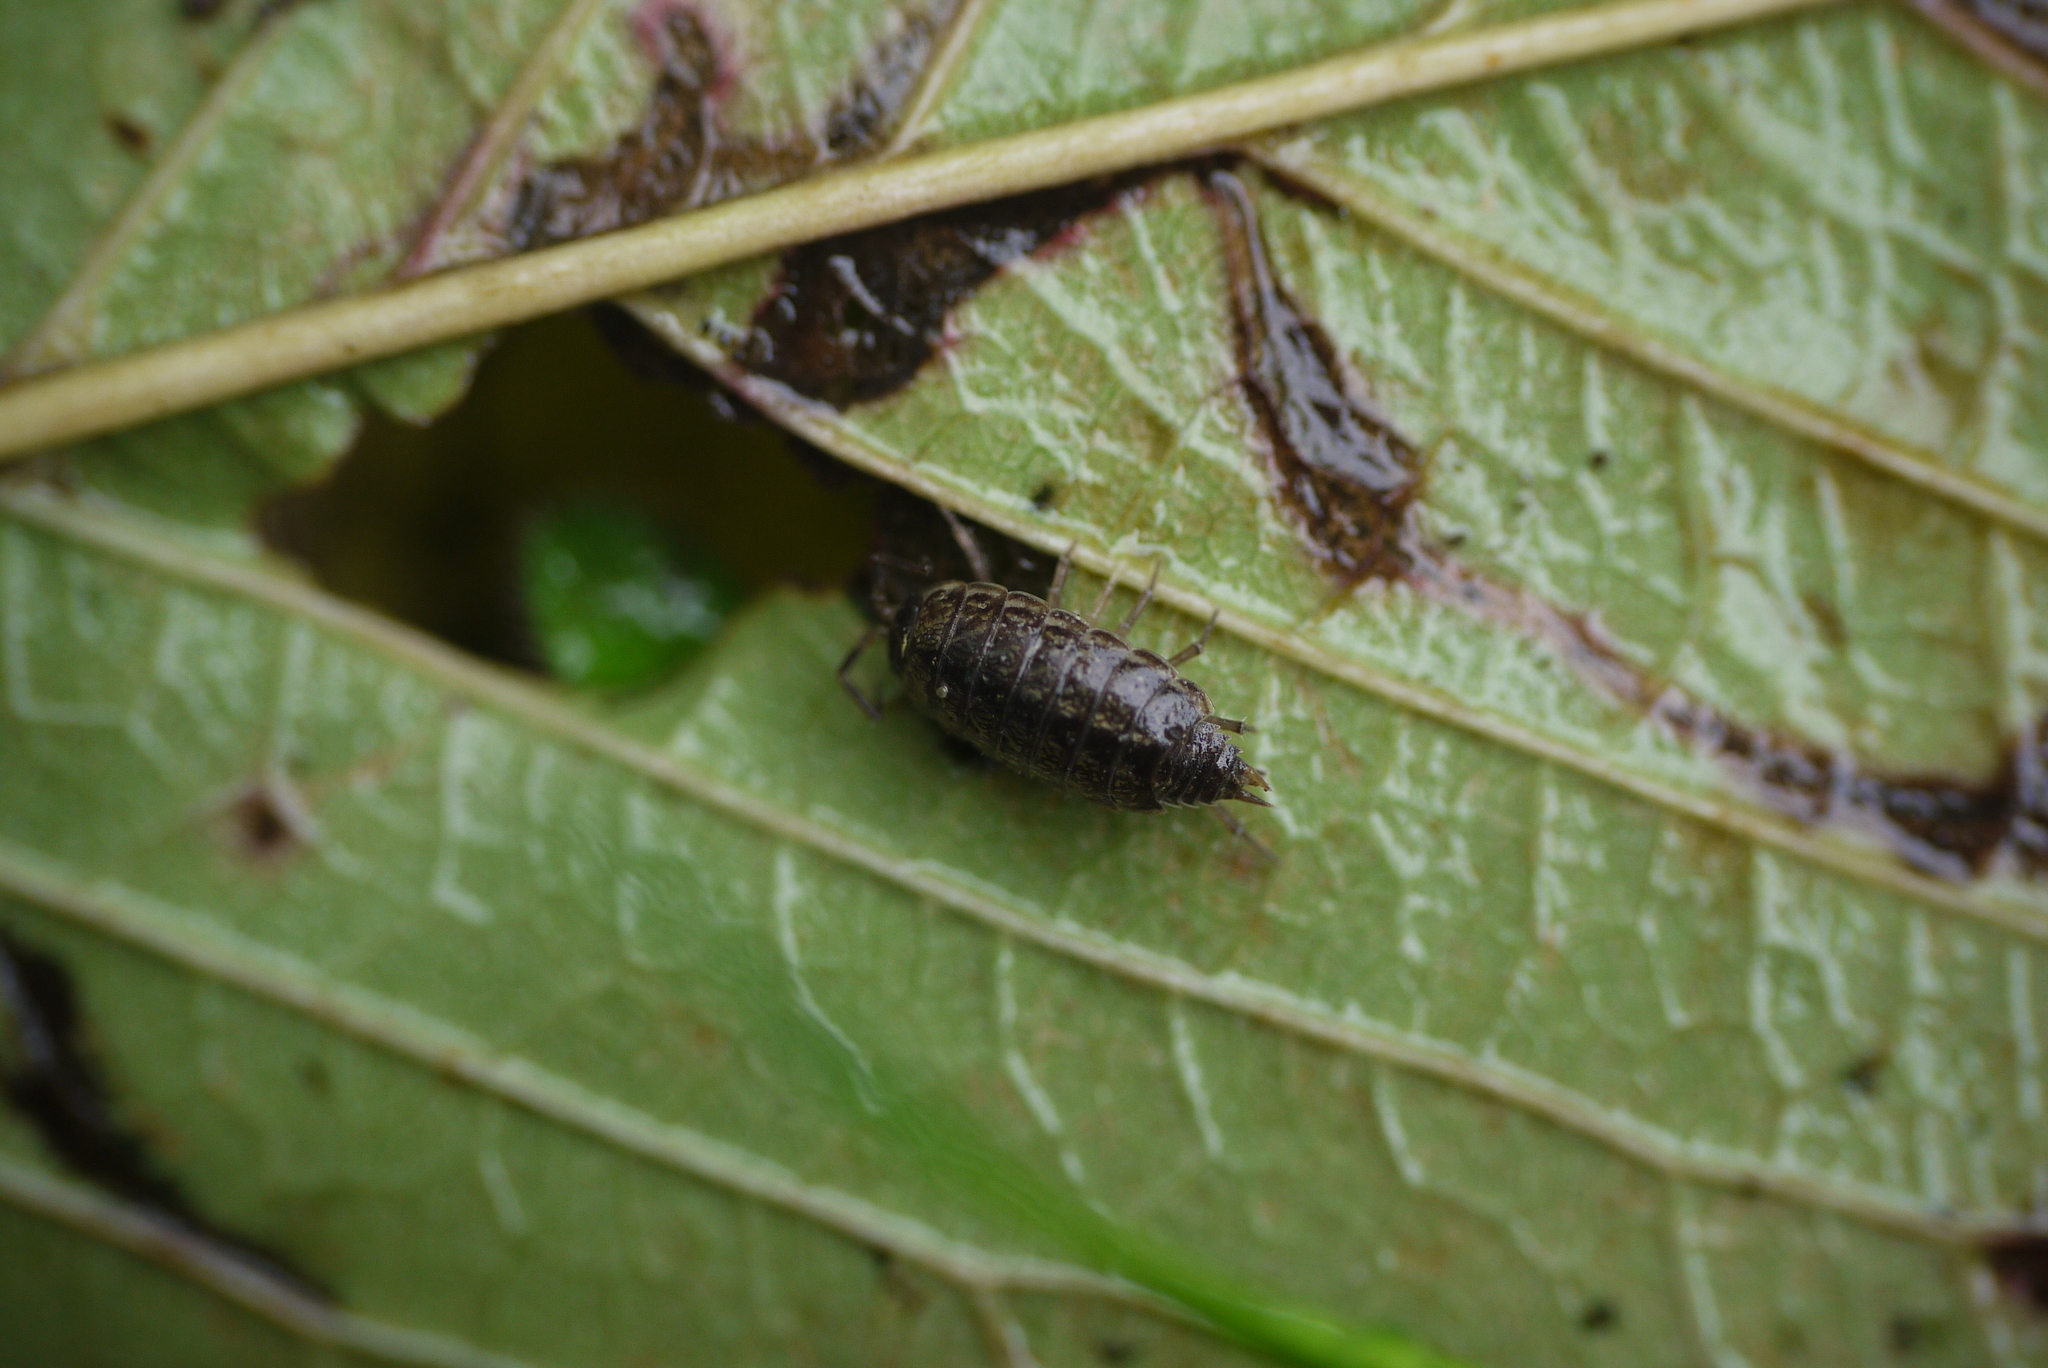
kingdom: Animalia
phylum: Arthropoda
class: Malacostraca
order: Isopoda
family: Philosciidae
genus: Philoscia
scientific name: Philoscia muscorum
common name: Common striped woodlouse
